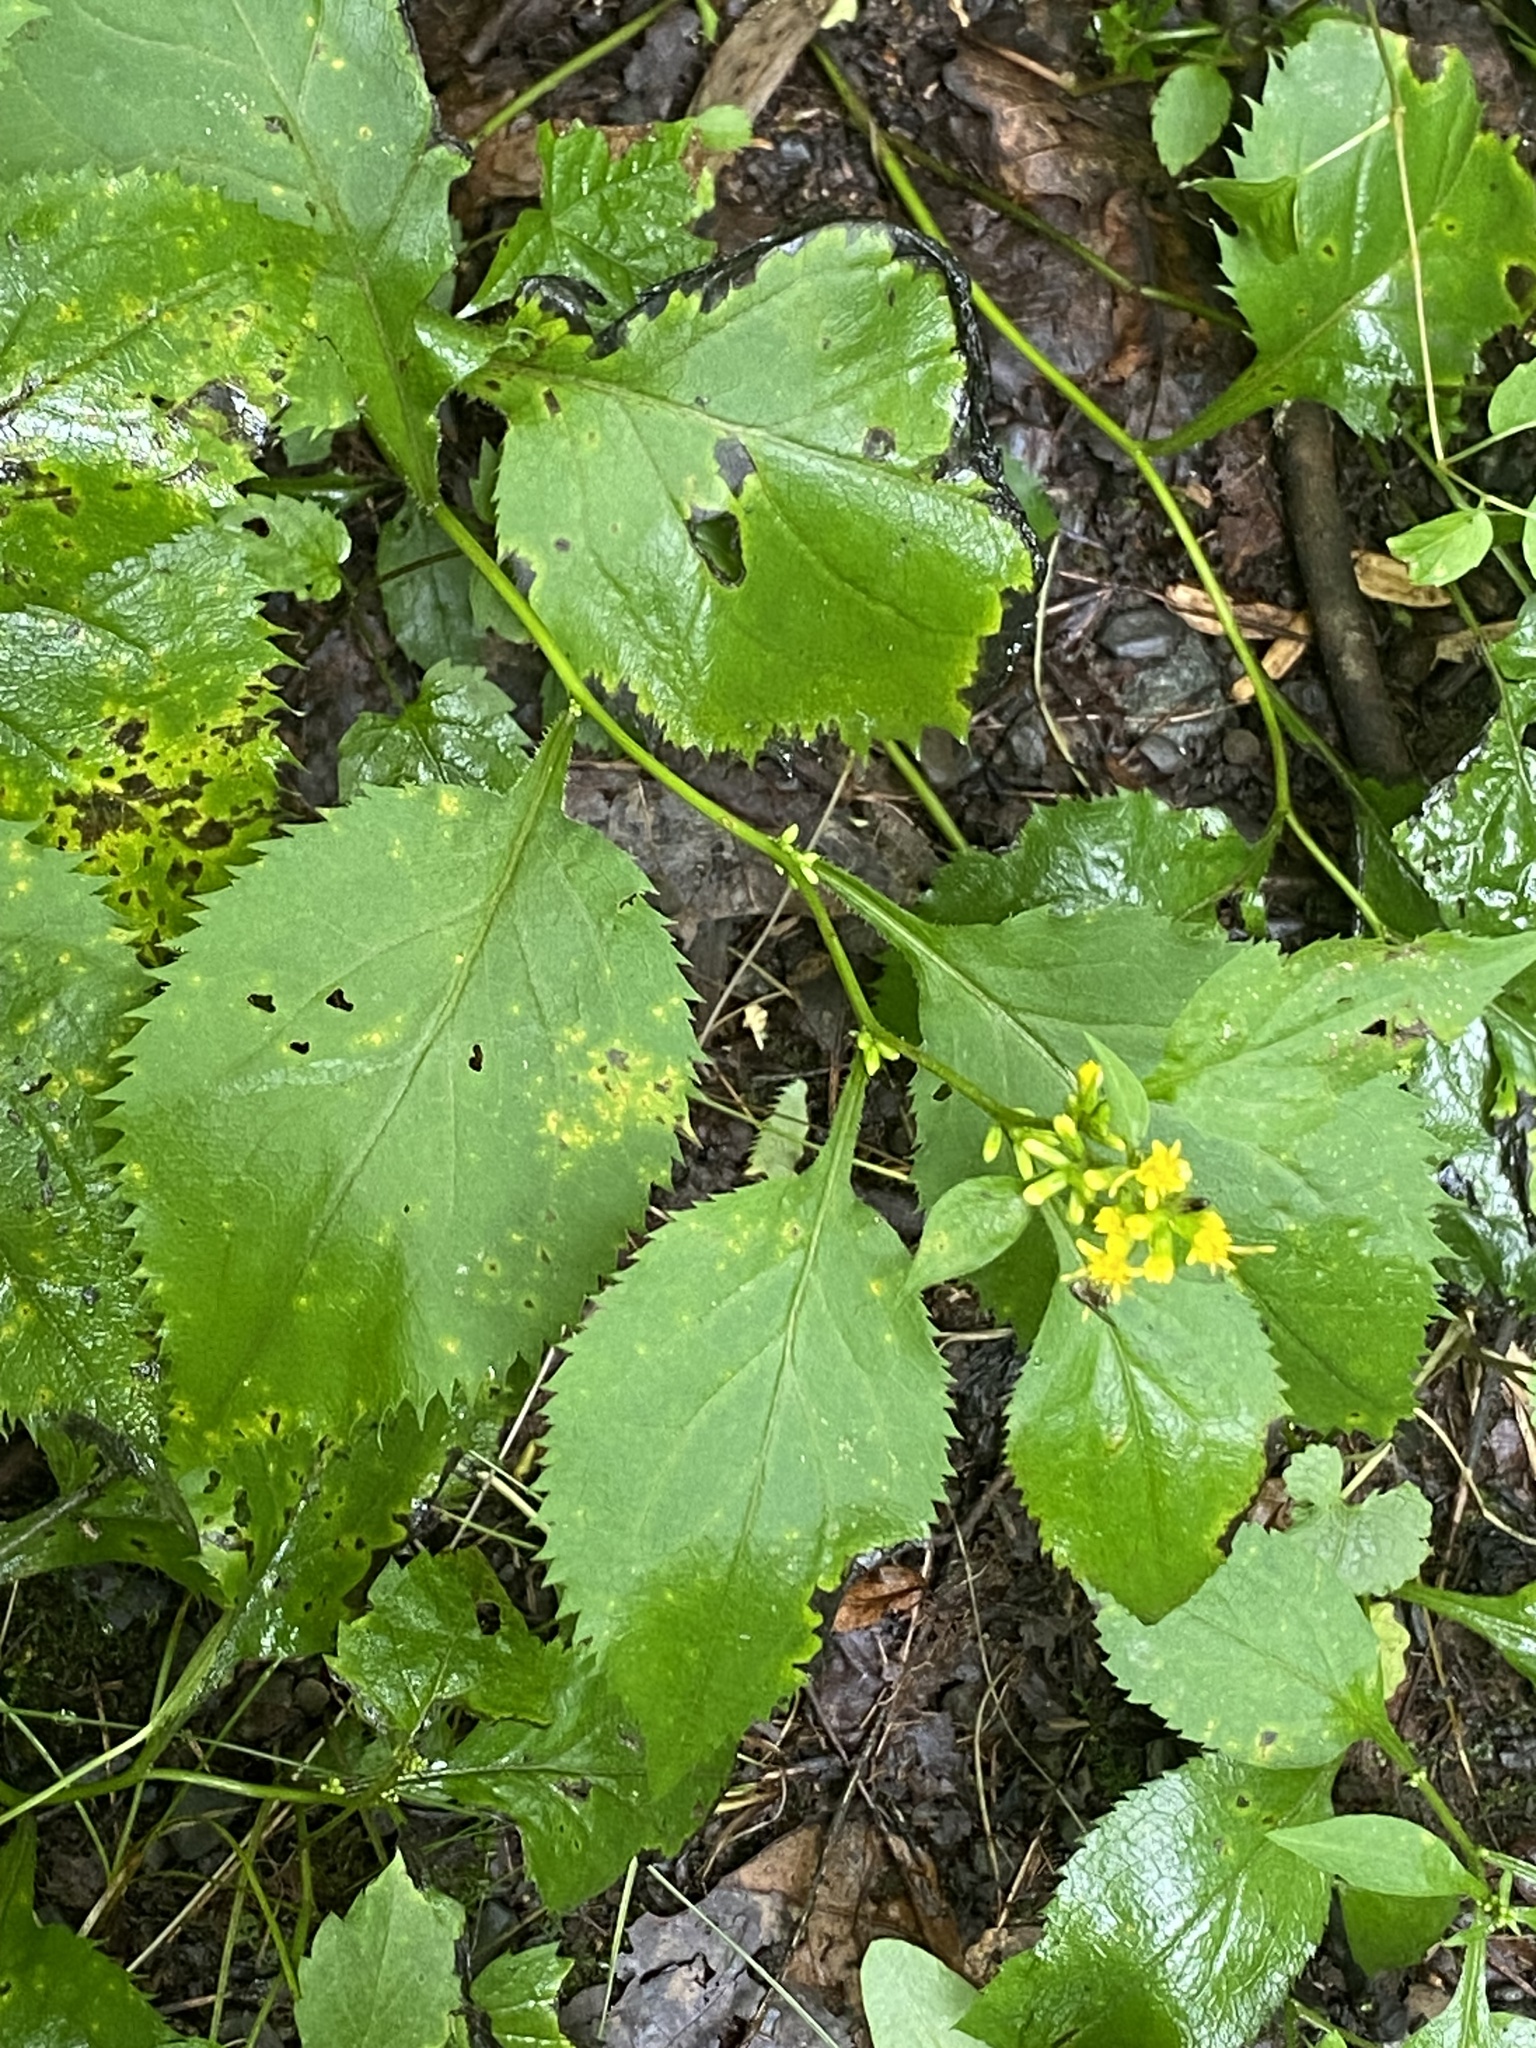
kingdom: Plantae
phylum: Tracheophyta
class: Magnoliopsida
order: Asterales
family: Asteraceae
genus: Solidago
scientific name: Solidago flexicaulis
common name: Zig-zag goldenrod
